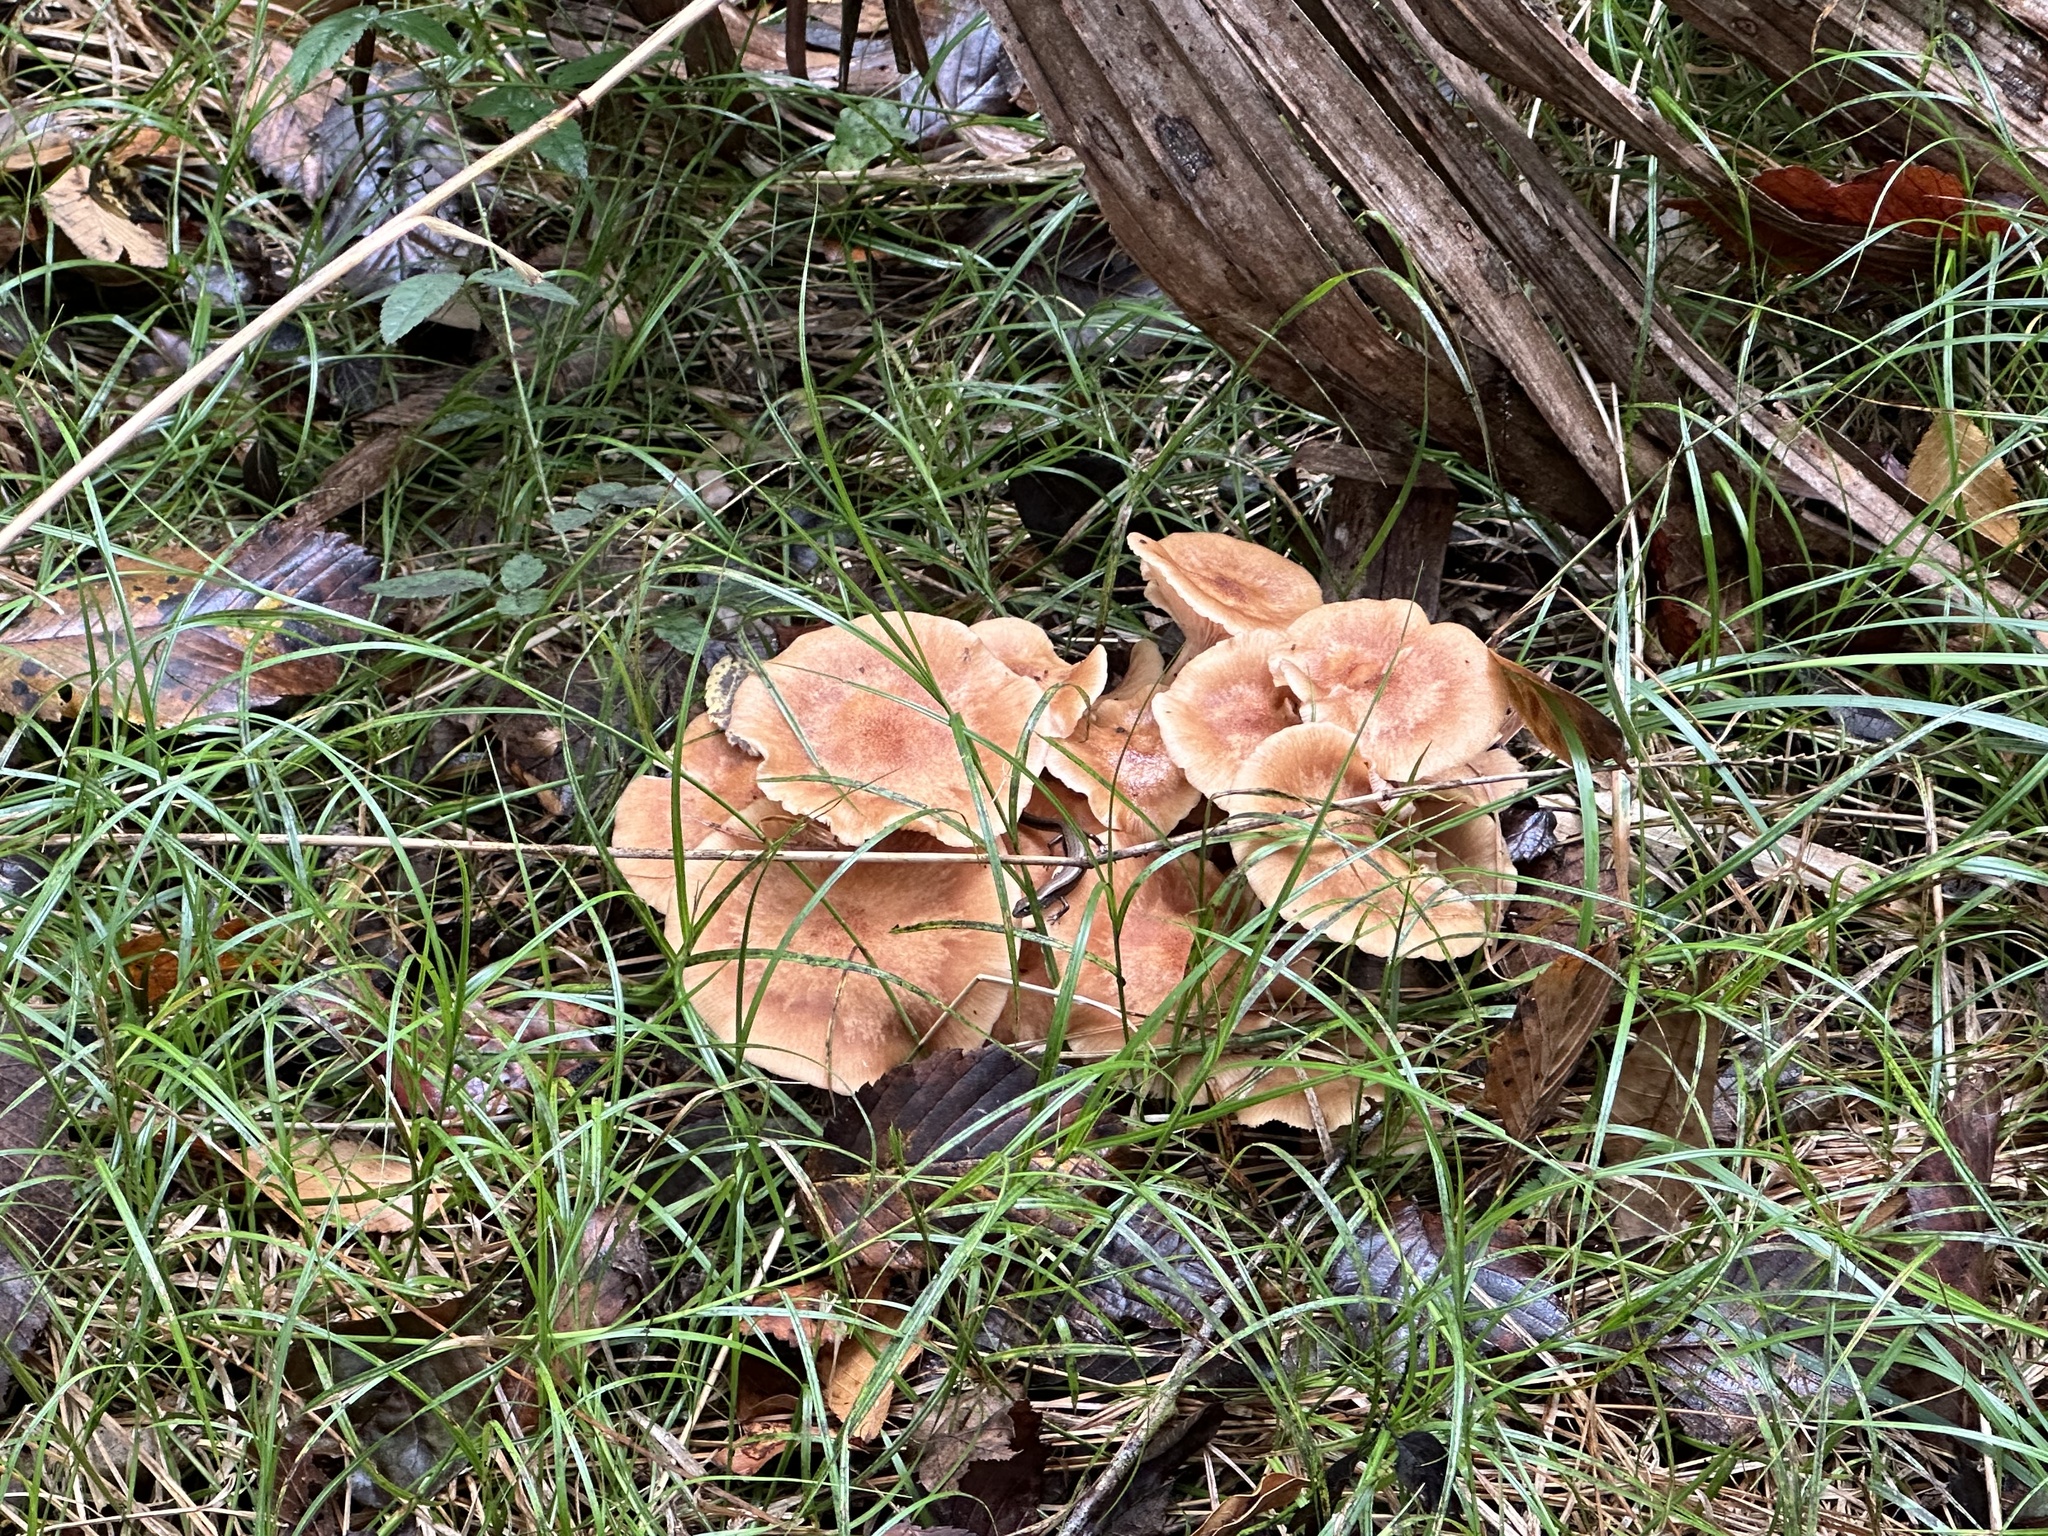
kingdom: Fungi
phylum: Basidiomycota
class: Agaricomycetes
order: Agaricales
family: Physalacriaceae
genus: Desarmillaria
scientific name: Desarmillaria caespitosa
